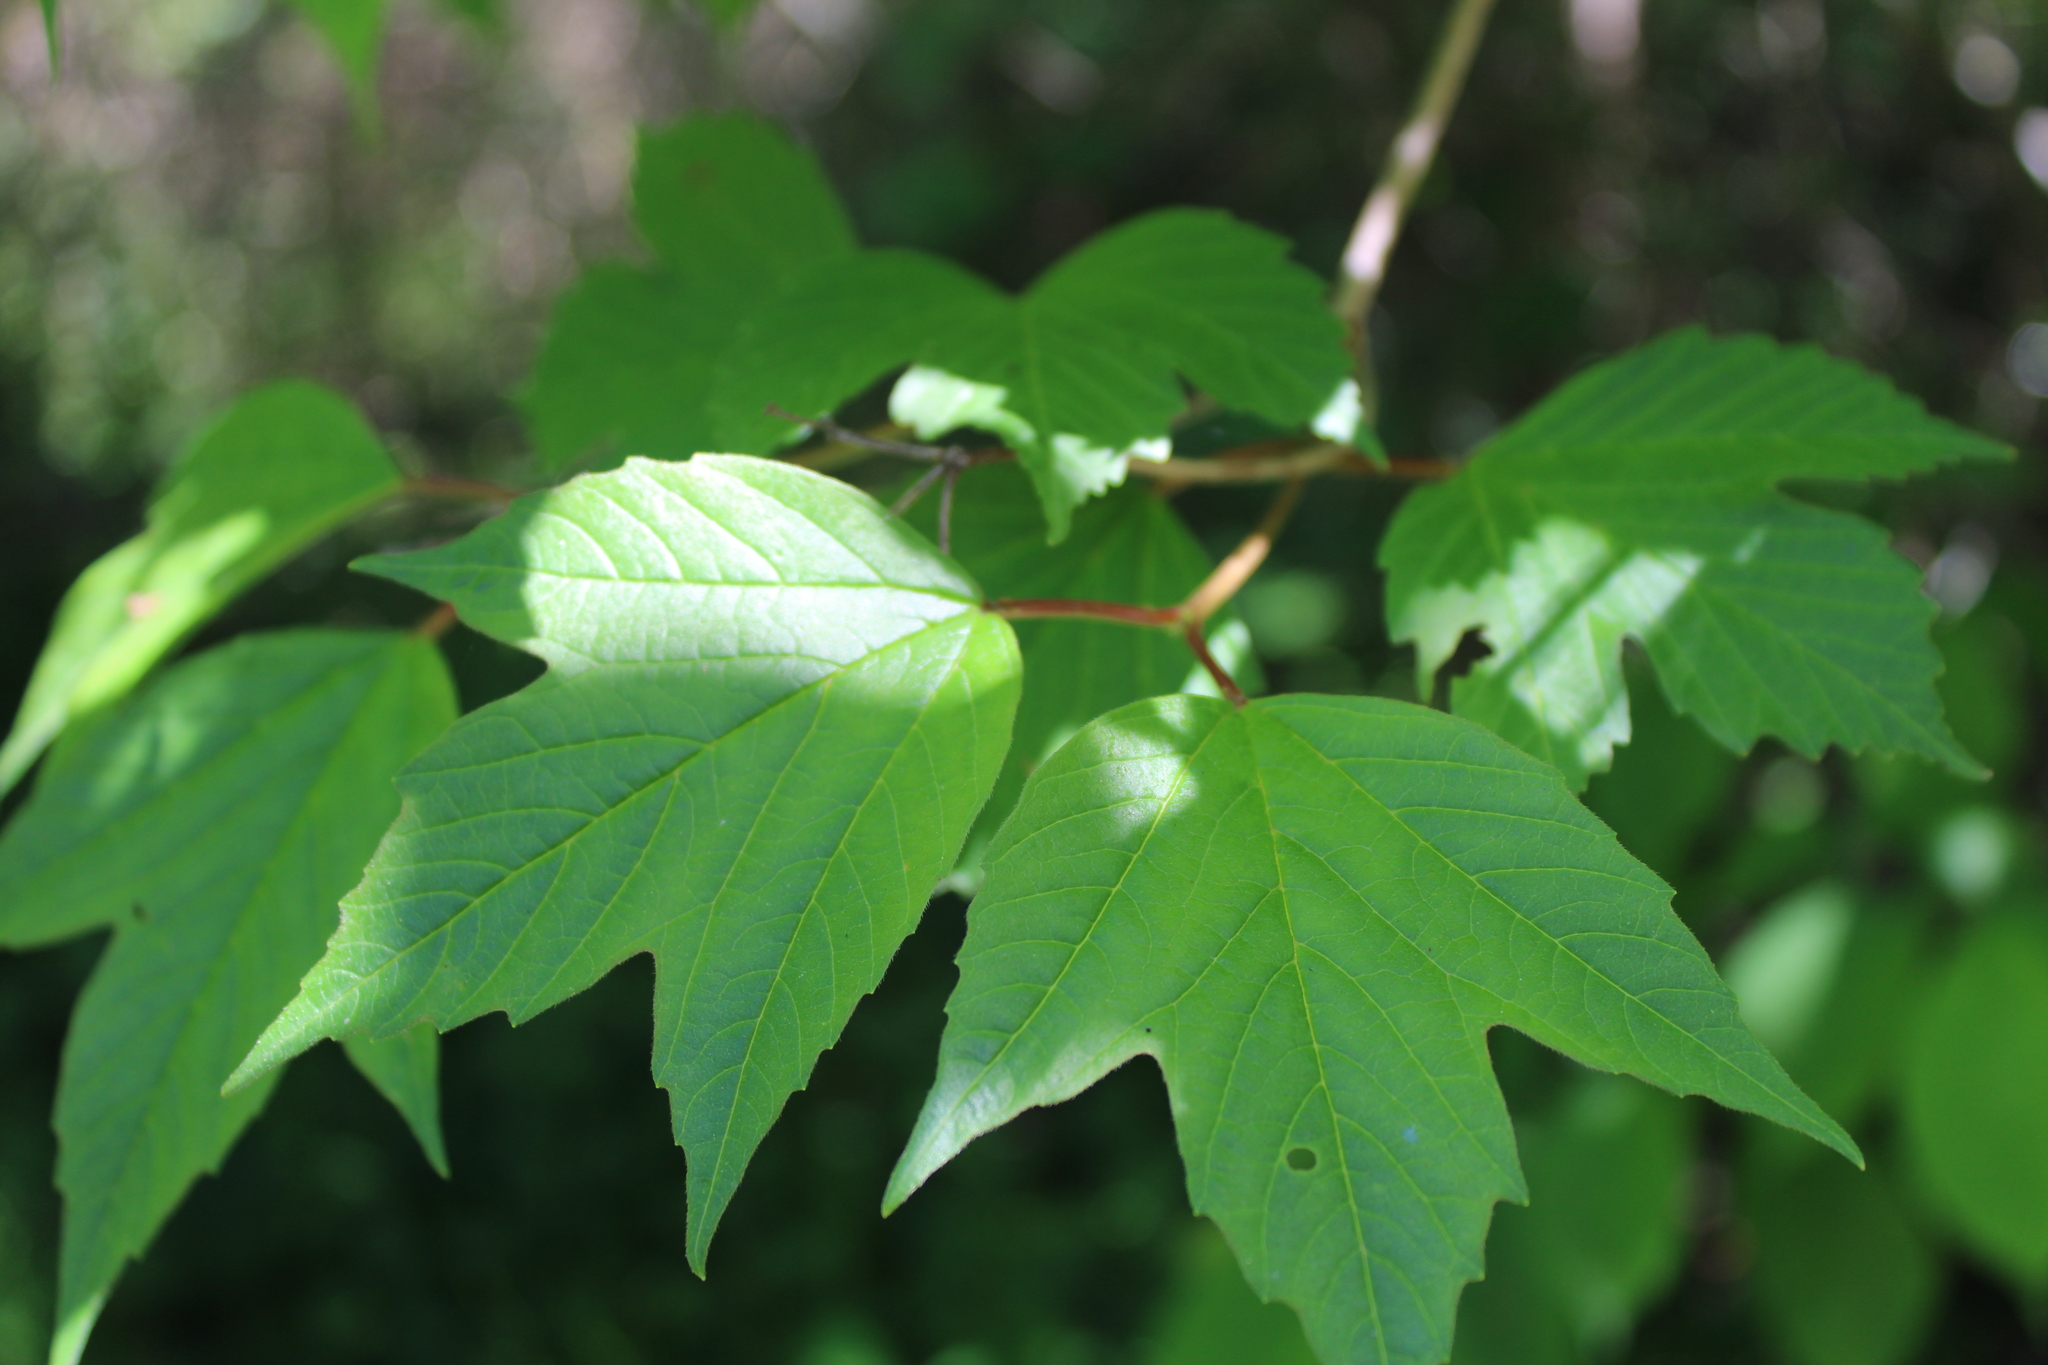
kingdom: Plantae
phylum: Tracheophyta
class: Magnoliopsida
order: Dipsacales
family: Viburnaceae
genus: Viburnum
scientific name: Viburnum opulus
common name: Guelder-rose
